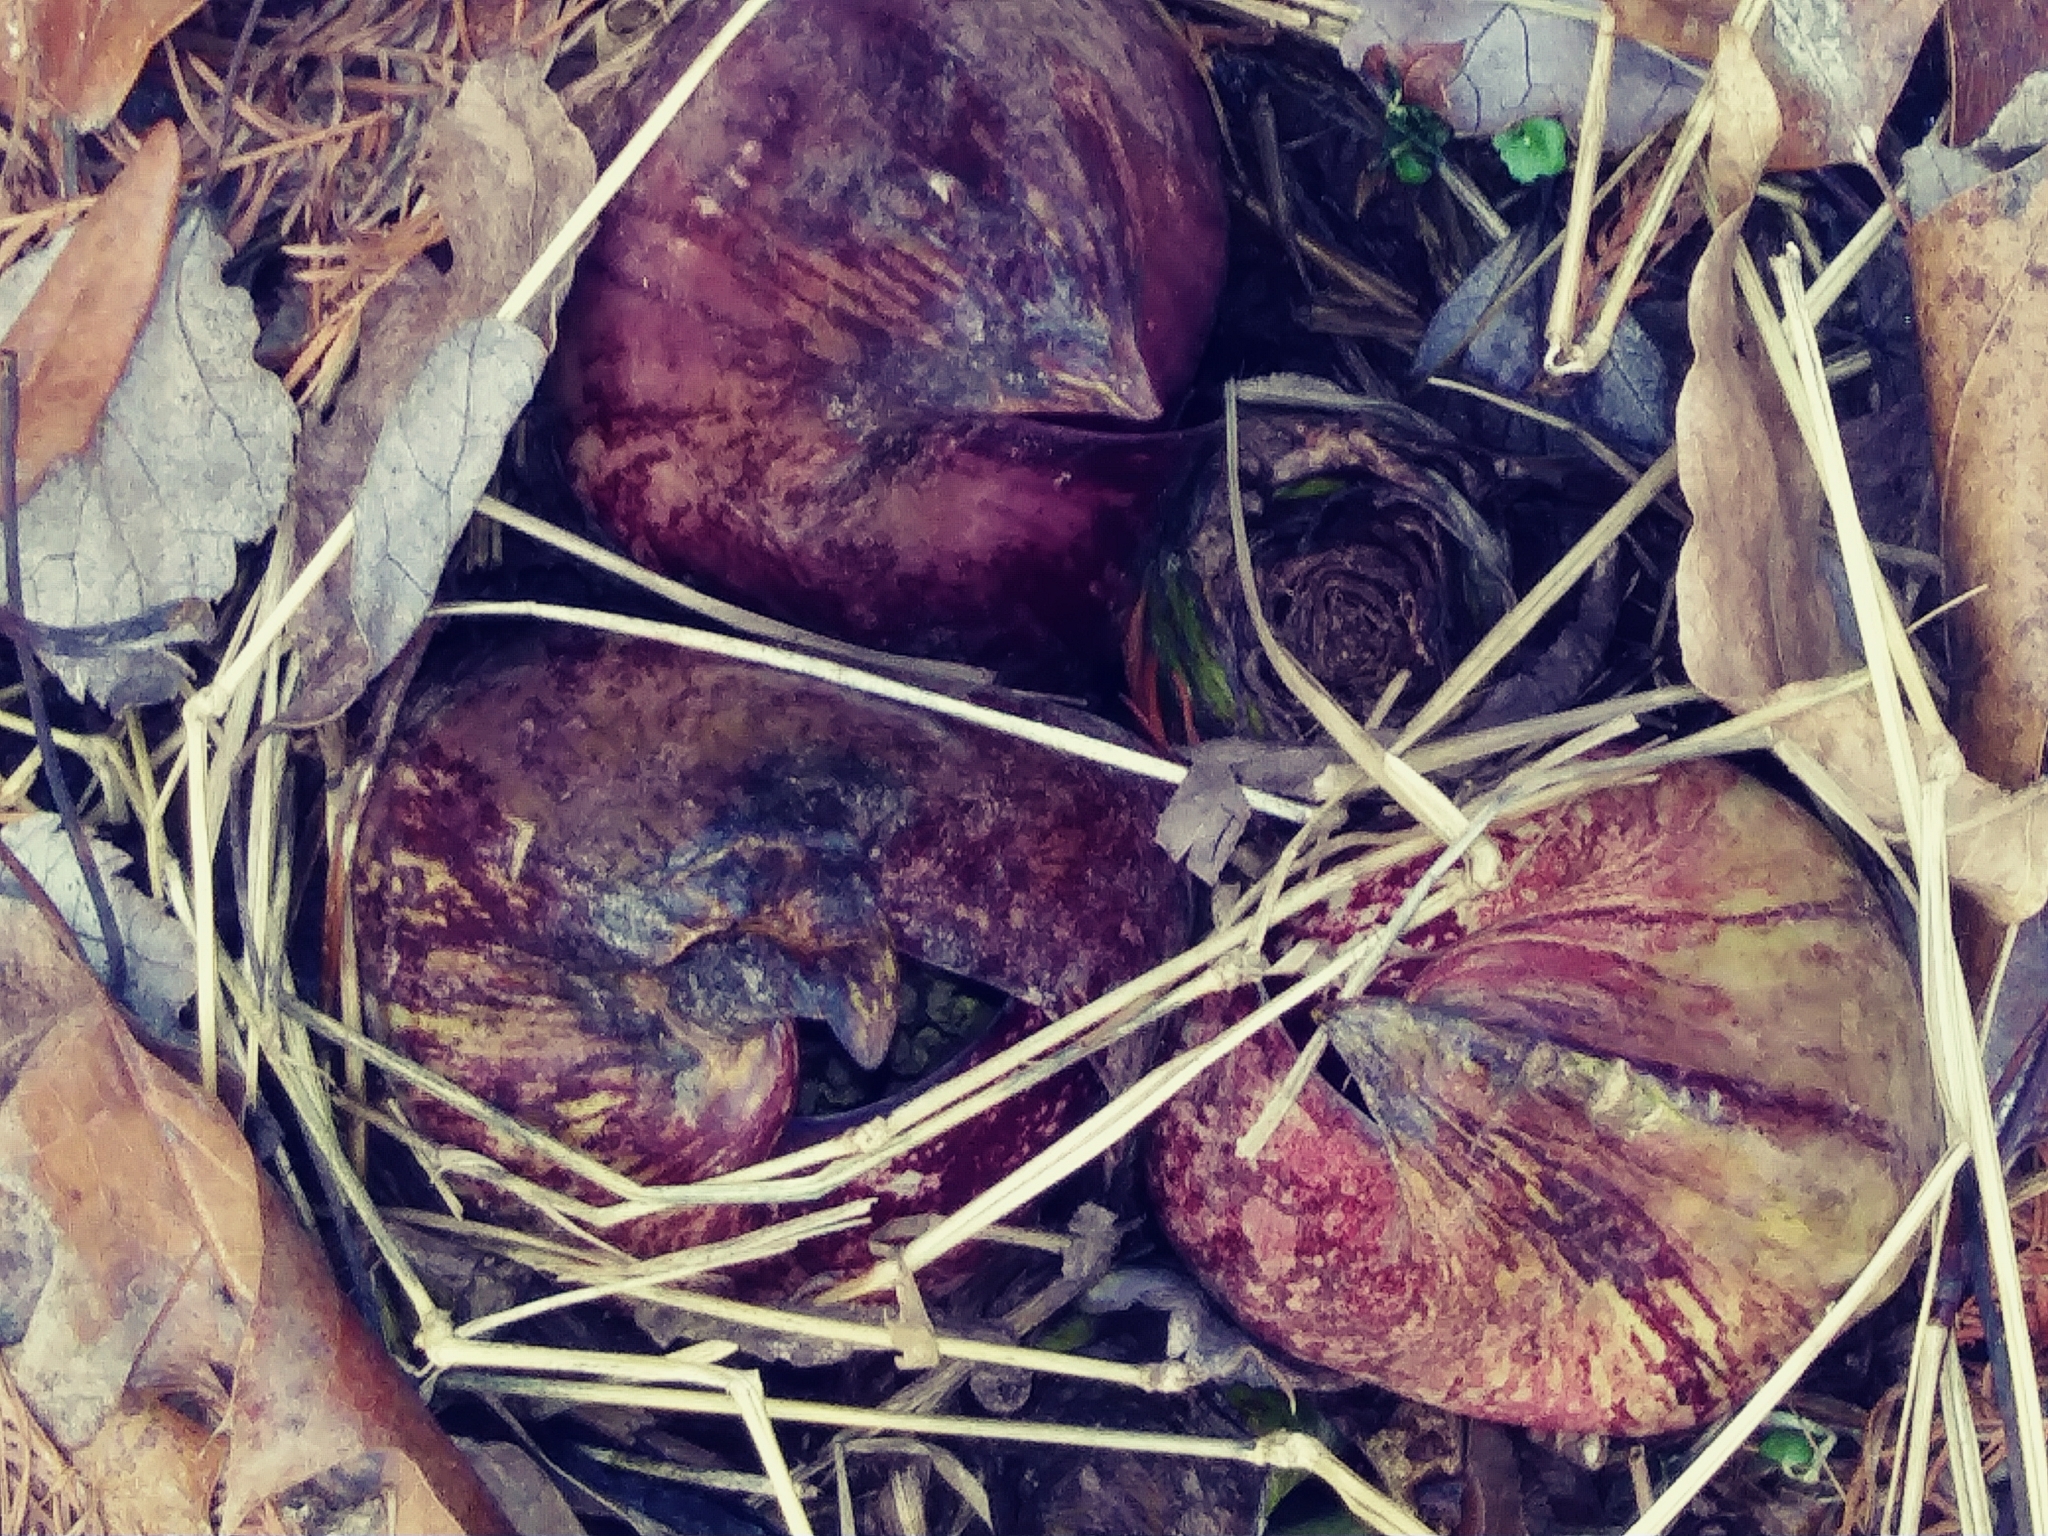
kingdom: Plantae
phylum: Tracheophyta
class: Liliopsida
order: Alismatales
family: Araceae
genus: Symplocarpus
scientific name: Symplocarpus foetidus
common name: Eastern skunk cabbage
